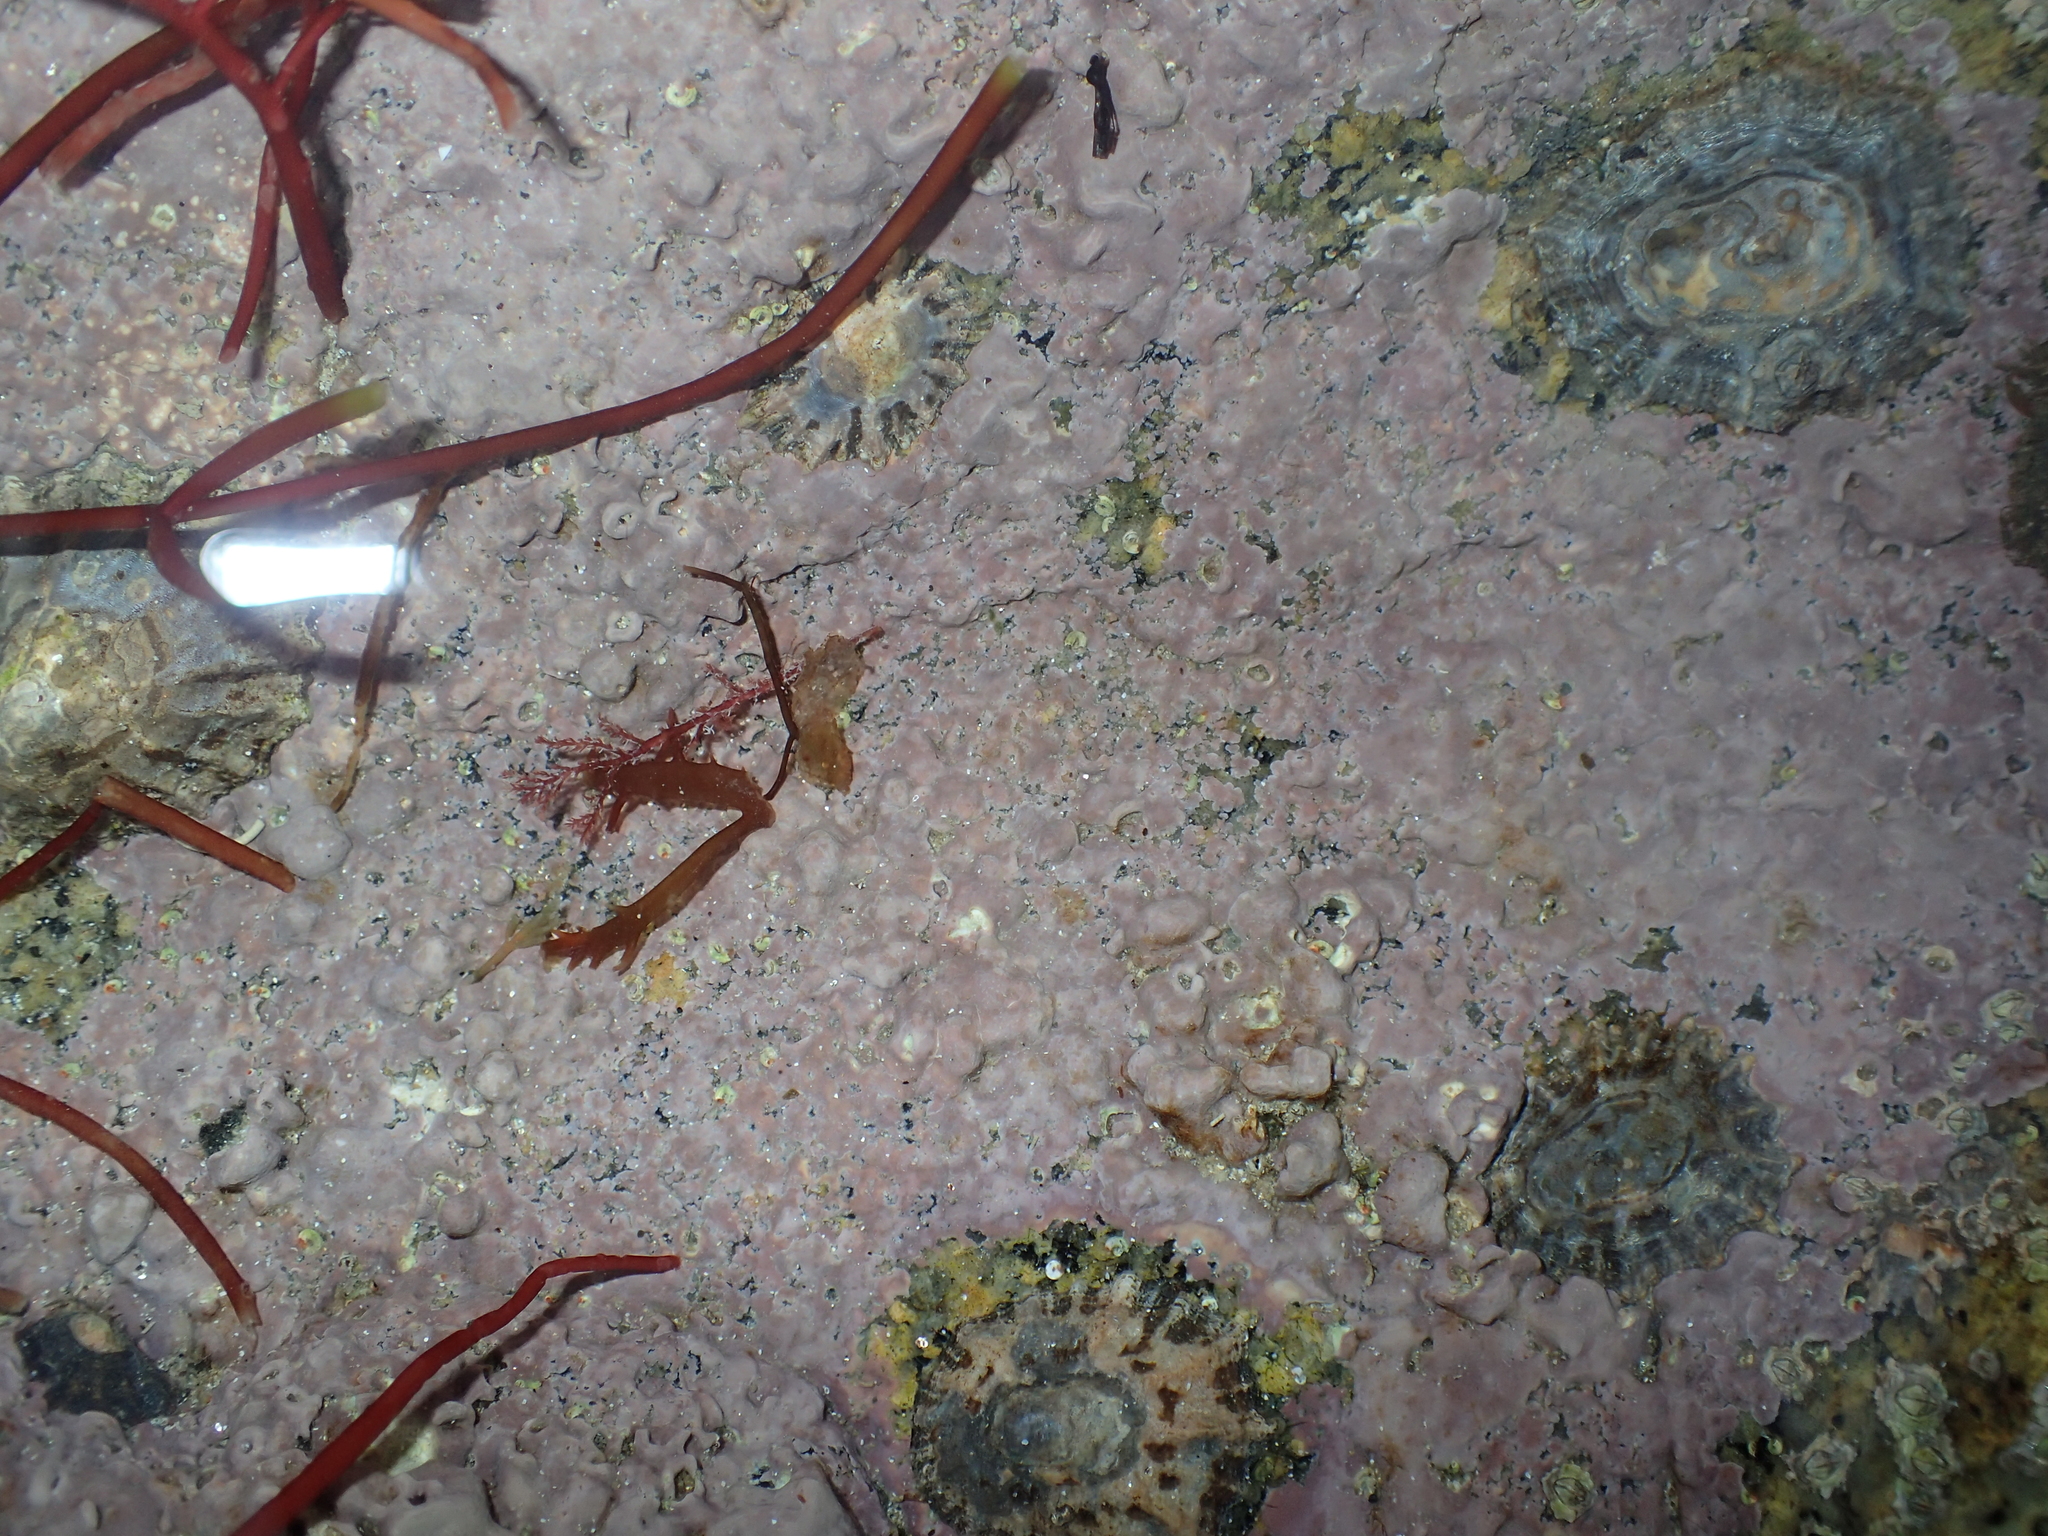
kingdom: Plantae
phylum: Rhodophyta
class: Florideophyceae
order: Corallinales
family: Hapalidiaceae
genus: Phymatolithon
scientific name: Phymatolithon lenormandii
